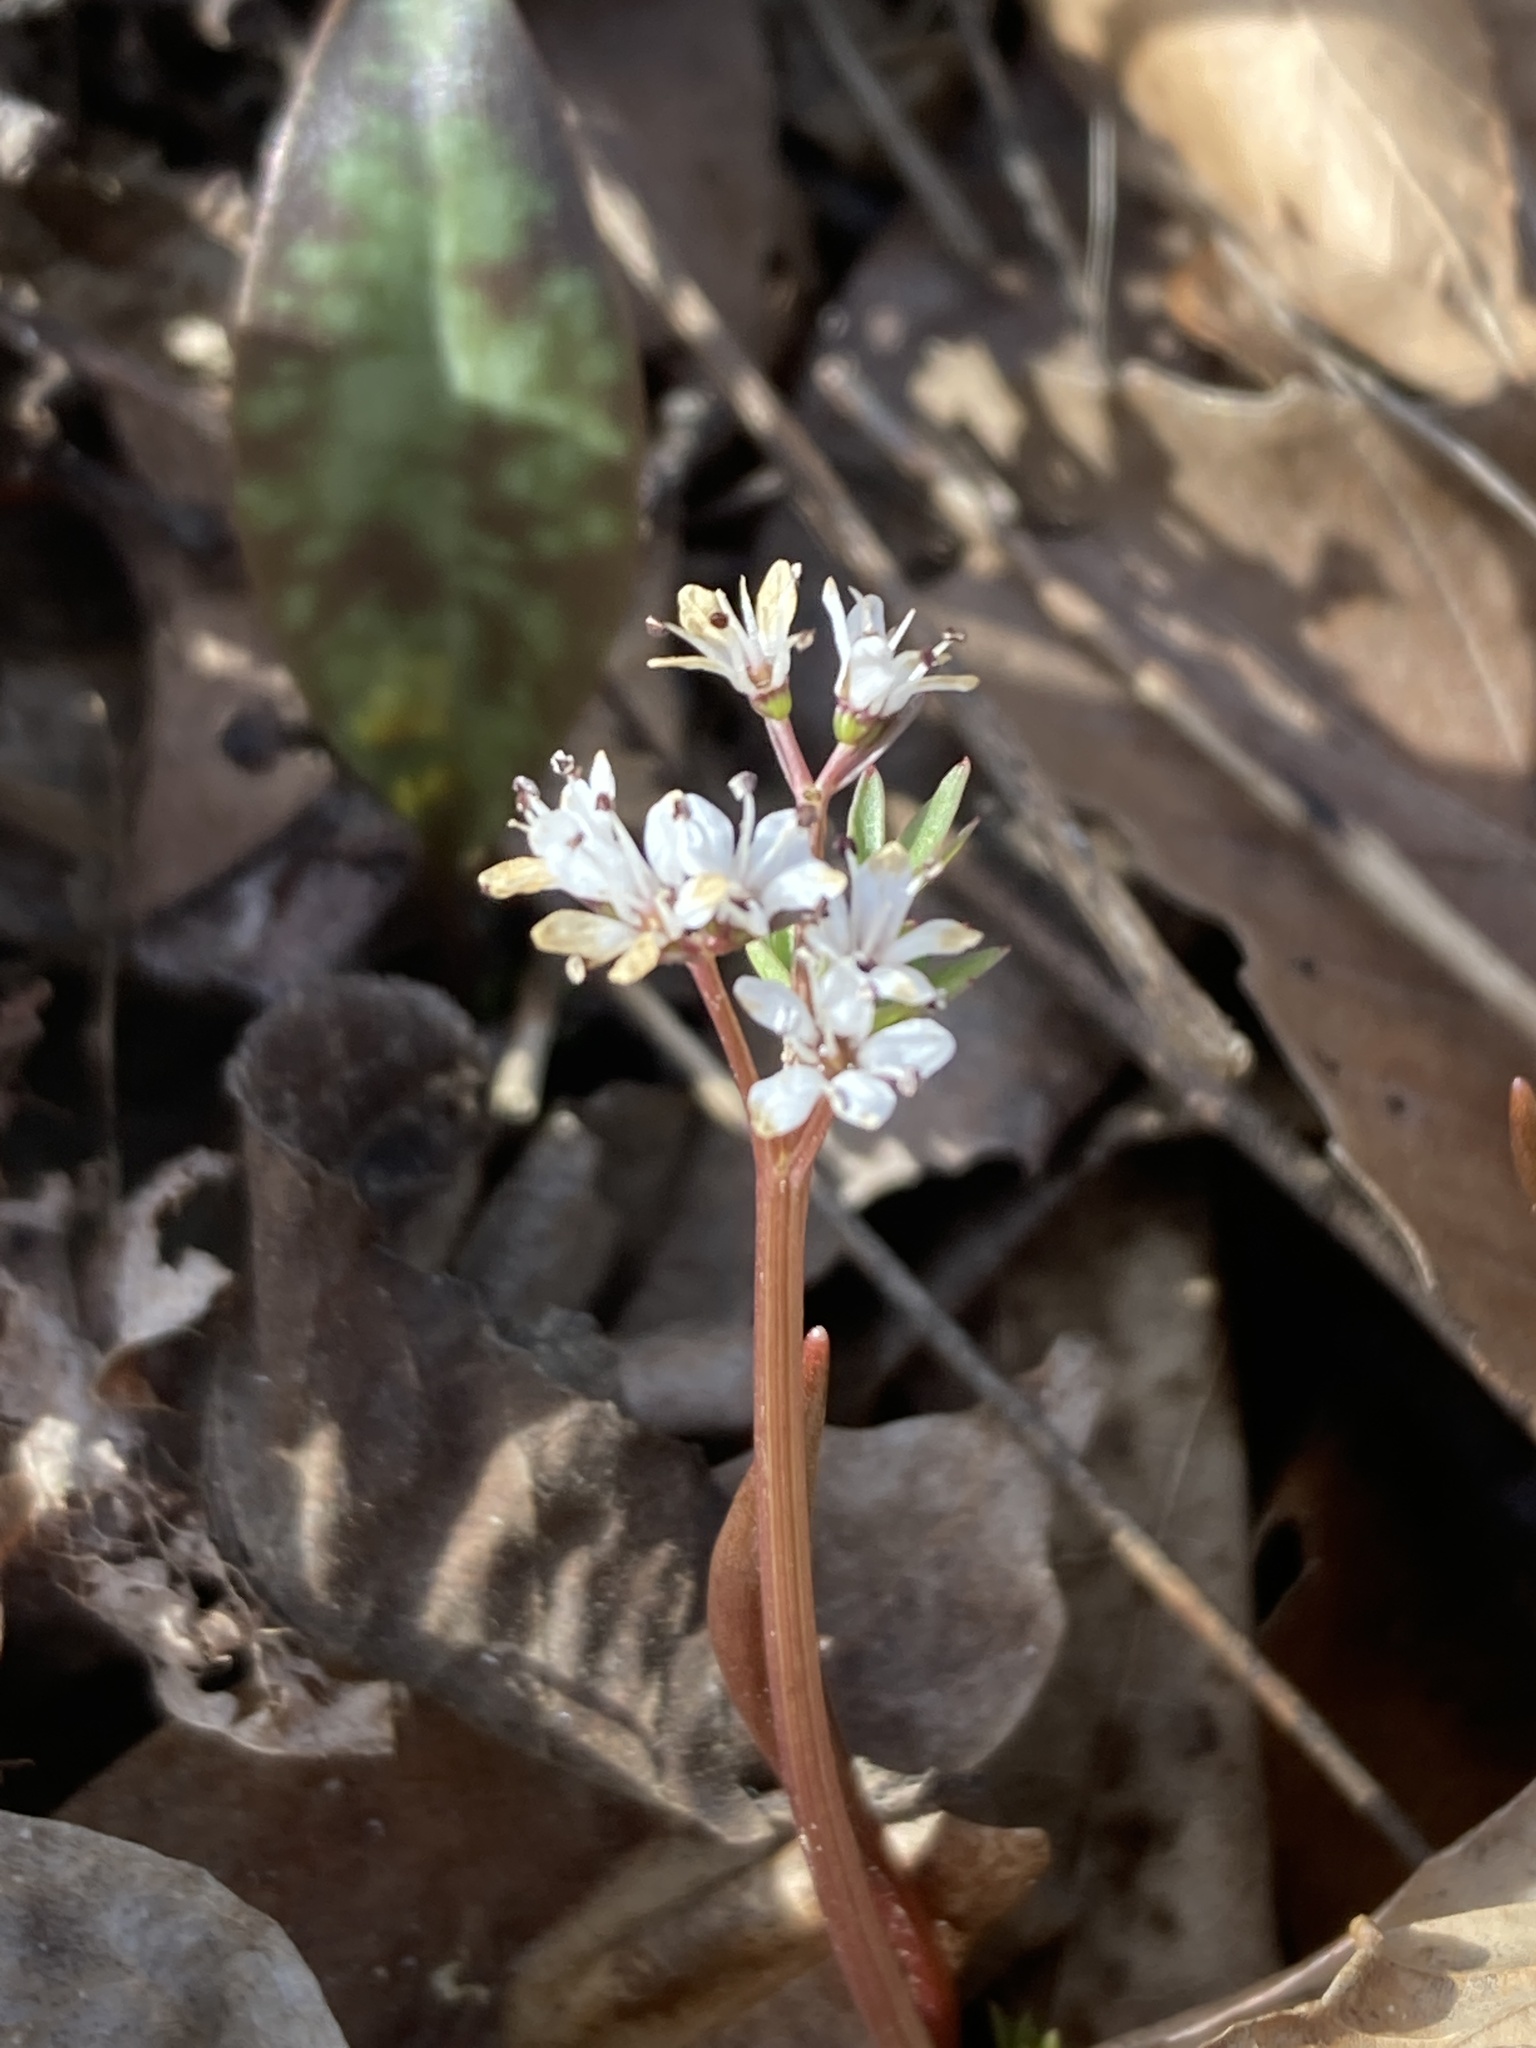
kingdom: Plantae
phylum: Tracheophyta
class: Magnoliopsida
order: Apiales
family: Apiaceae
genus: Erigenia
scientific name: Erigenia bulbosa
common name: Pepper-and-salt
